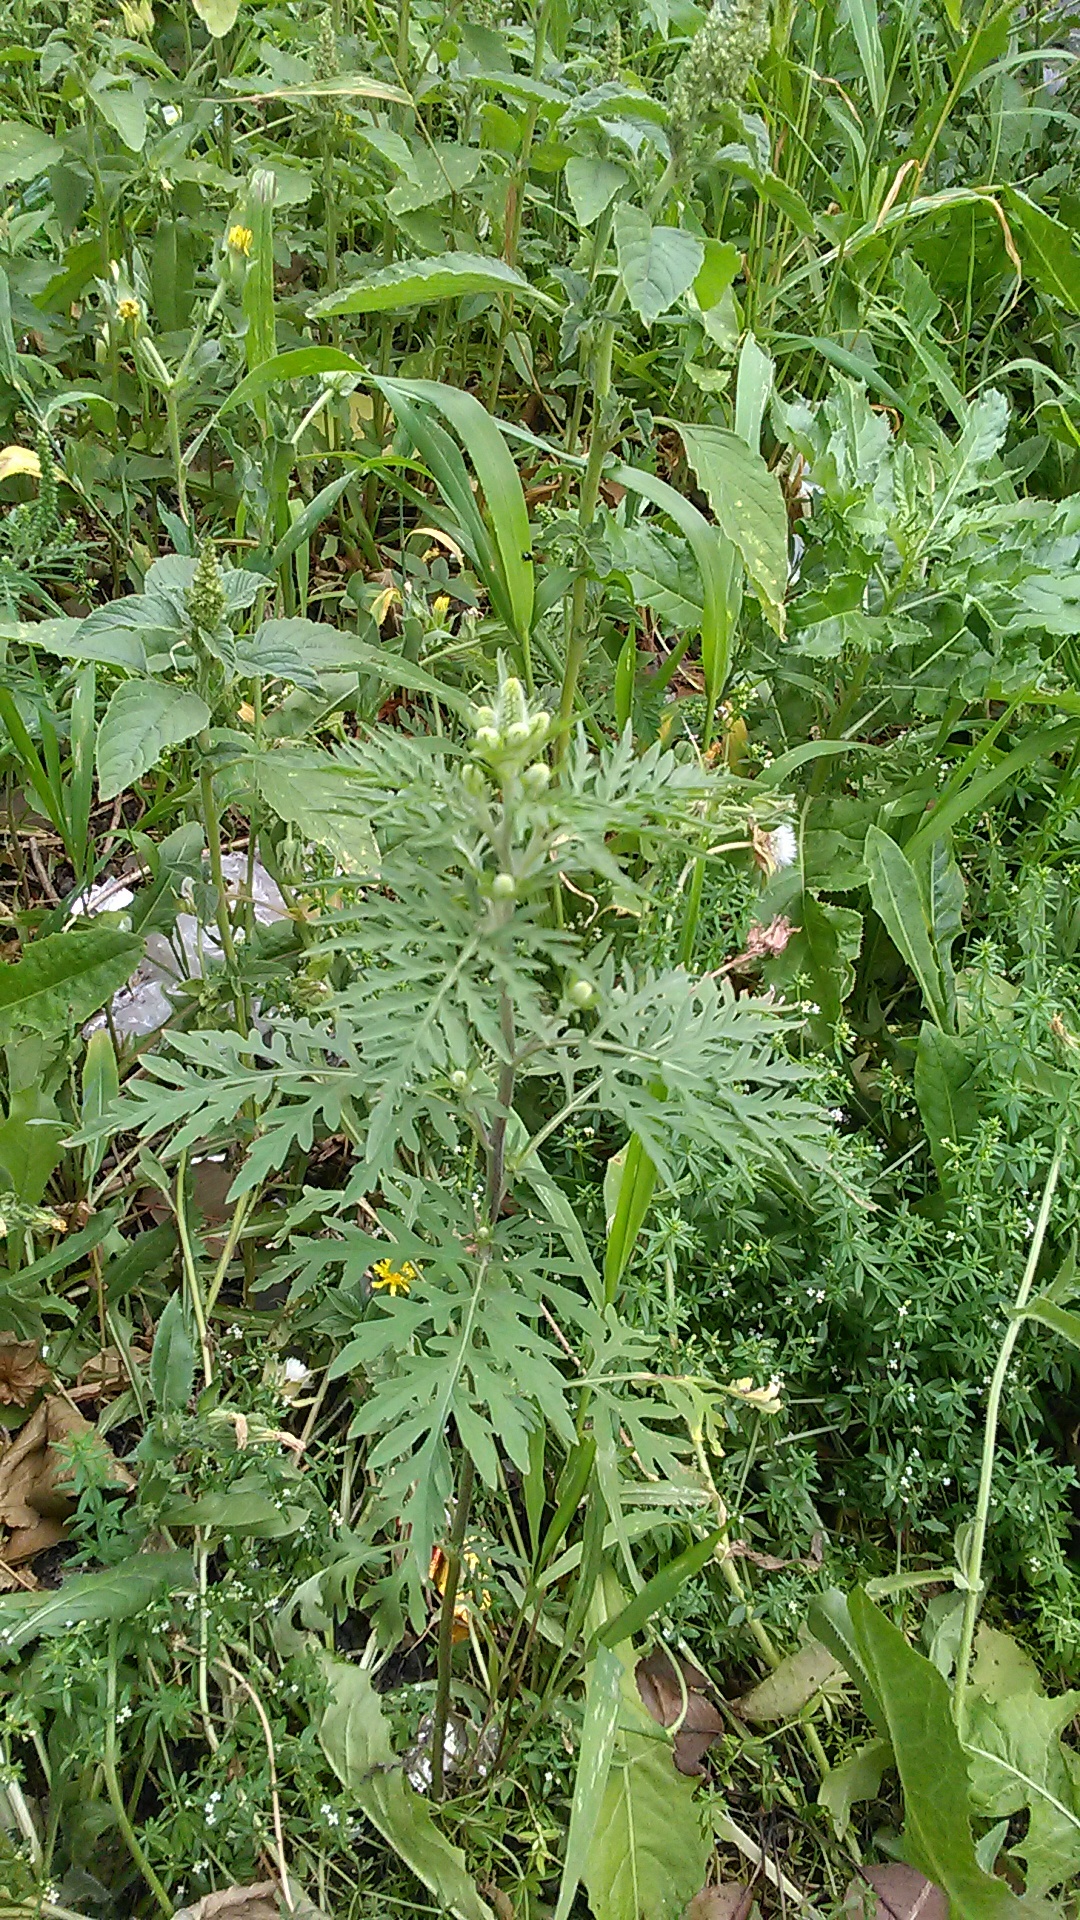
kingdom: Plantae
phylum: Tracheophyta
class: Magnoliopsida
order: Asterales
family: Asteraceae
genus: Ambrosia
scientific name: Ambrosia artemisiifolia
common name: Annual ragweed
